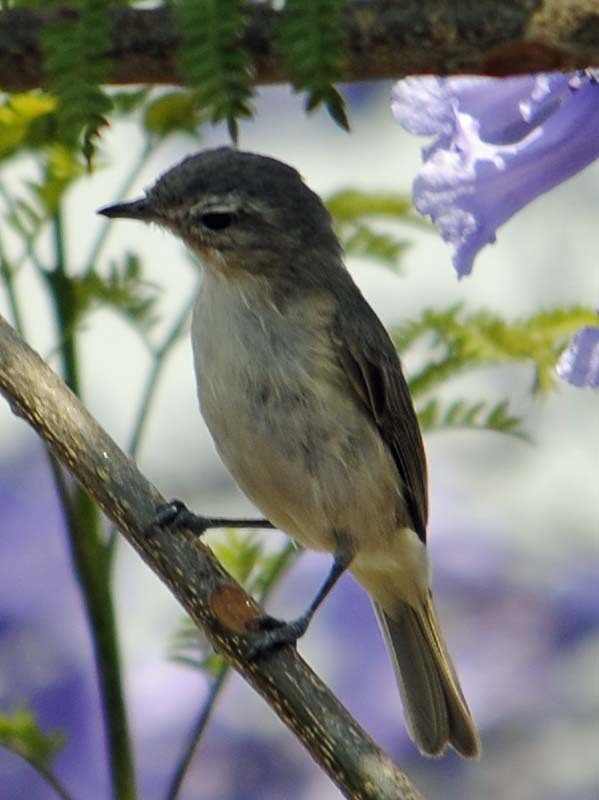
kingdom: Animalia
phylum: Chordata
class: Aves
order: Passeriformes
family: Vireonidae
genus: Vireo
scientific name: Vireo gilvus
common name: Warbling vireo
